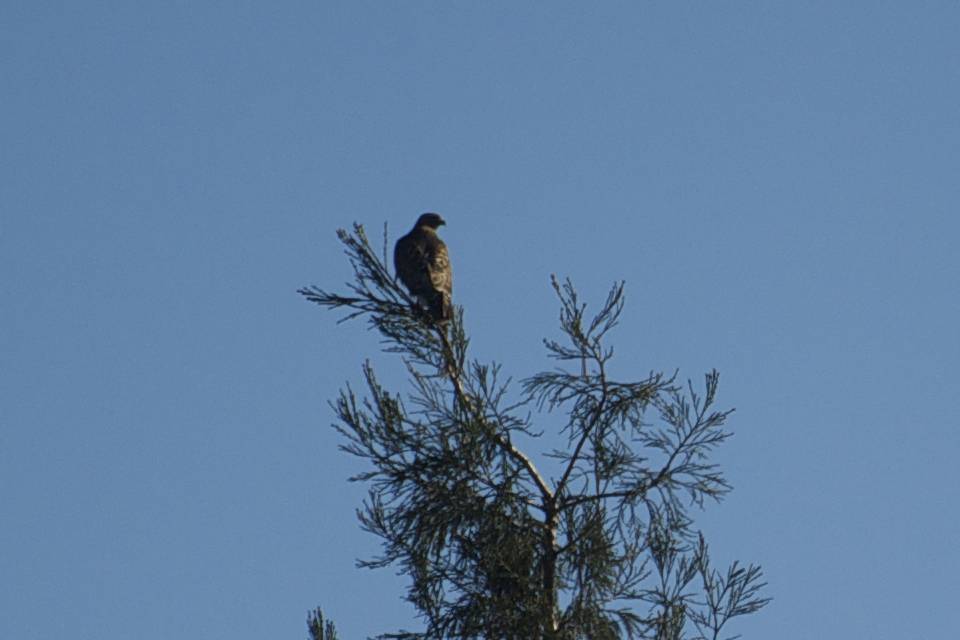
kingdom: Animalia
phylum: Chordata
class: Aves
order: Accipitriformes
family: Accipitridae
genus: Buteo
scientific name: Buteo jamaicensis
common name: Red-tailed hawk
